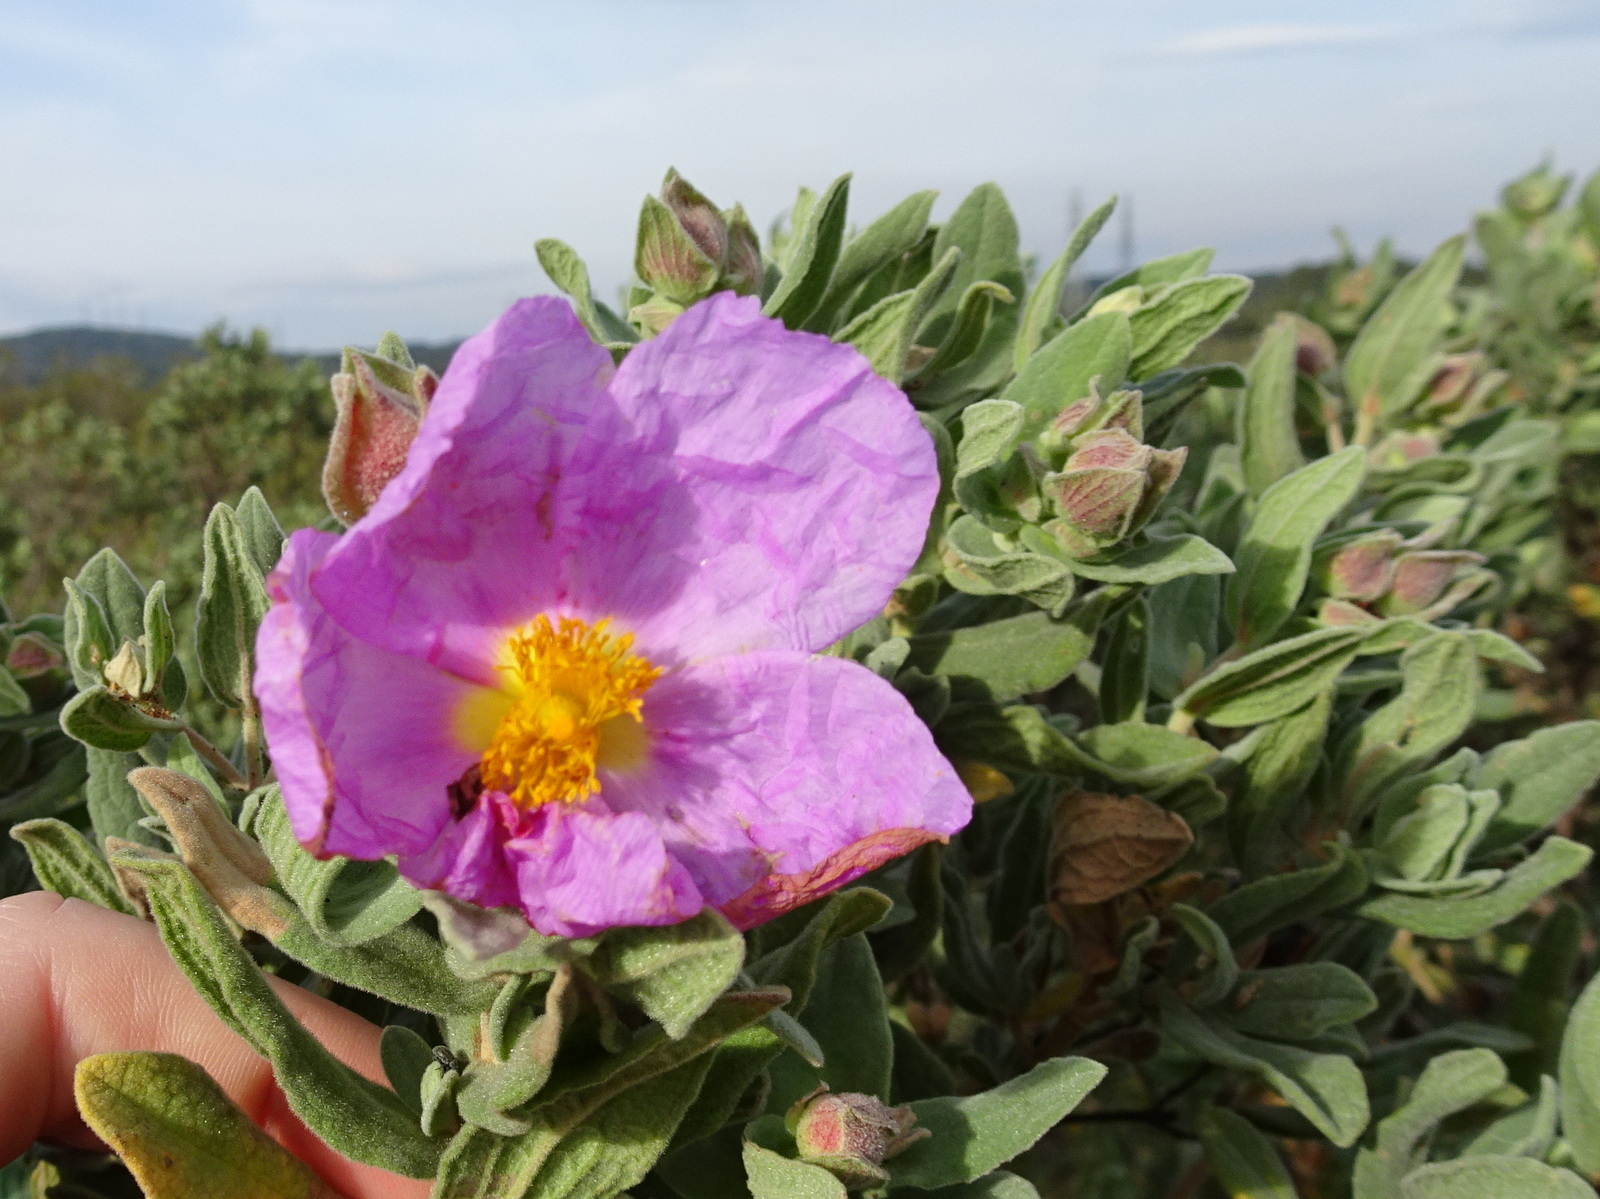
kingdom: Plantae
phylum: Tracheophyta
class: Magnoliopsida
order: Malvales
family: Cistaceae
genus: Cistus
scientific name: Cistus albidus
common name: White-leaf rock-rose
